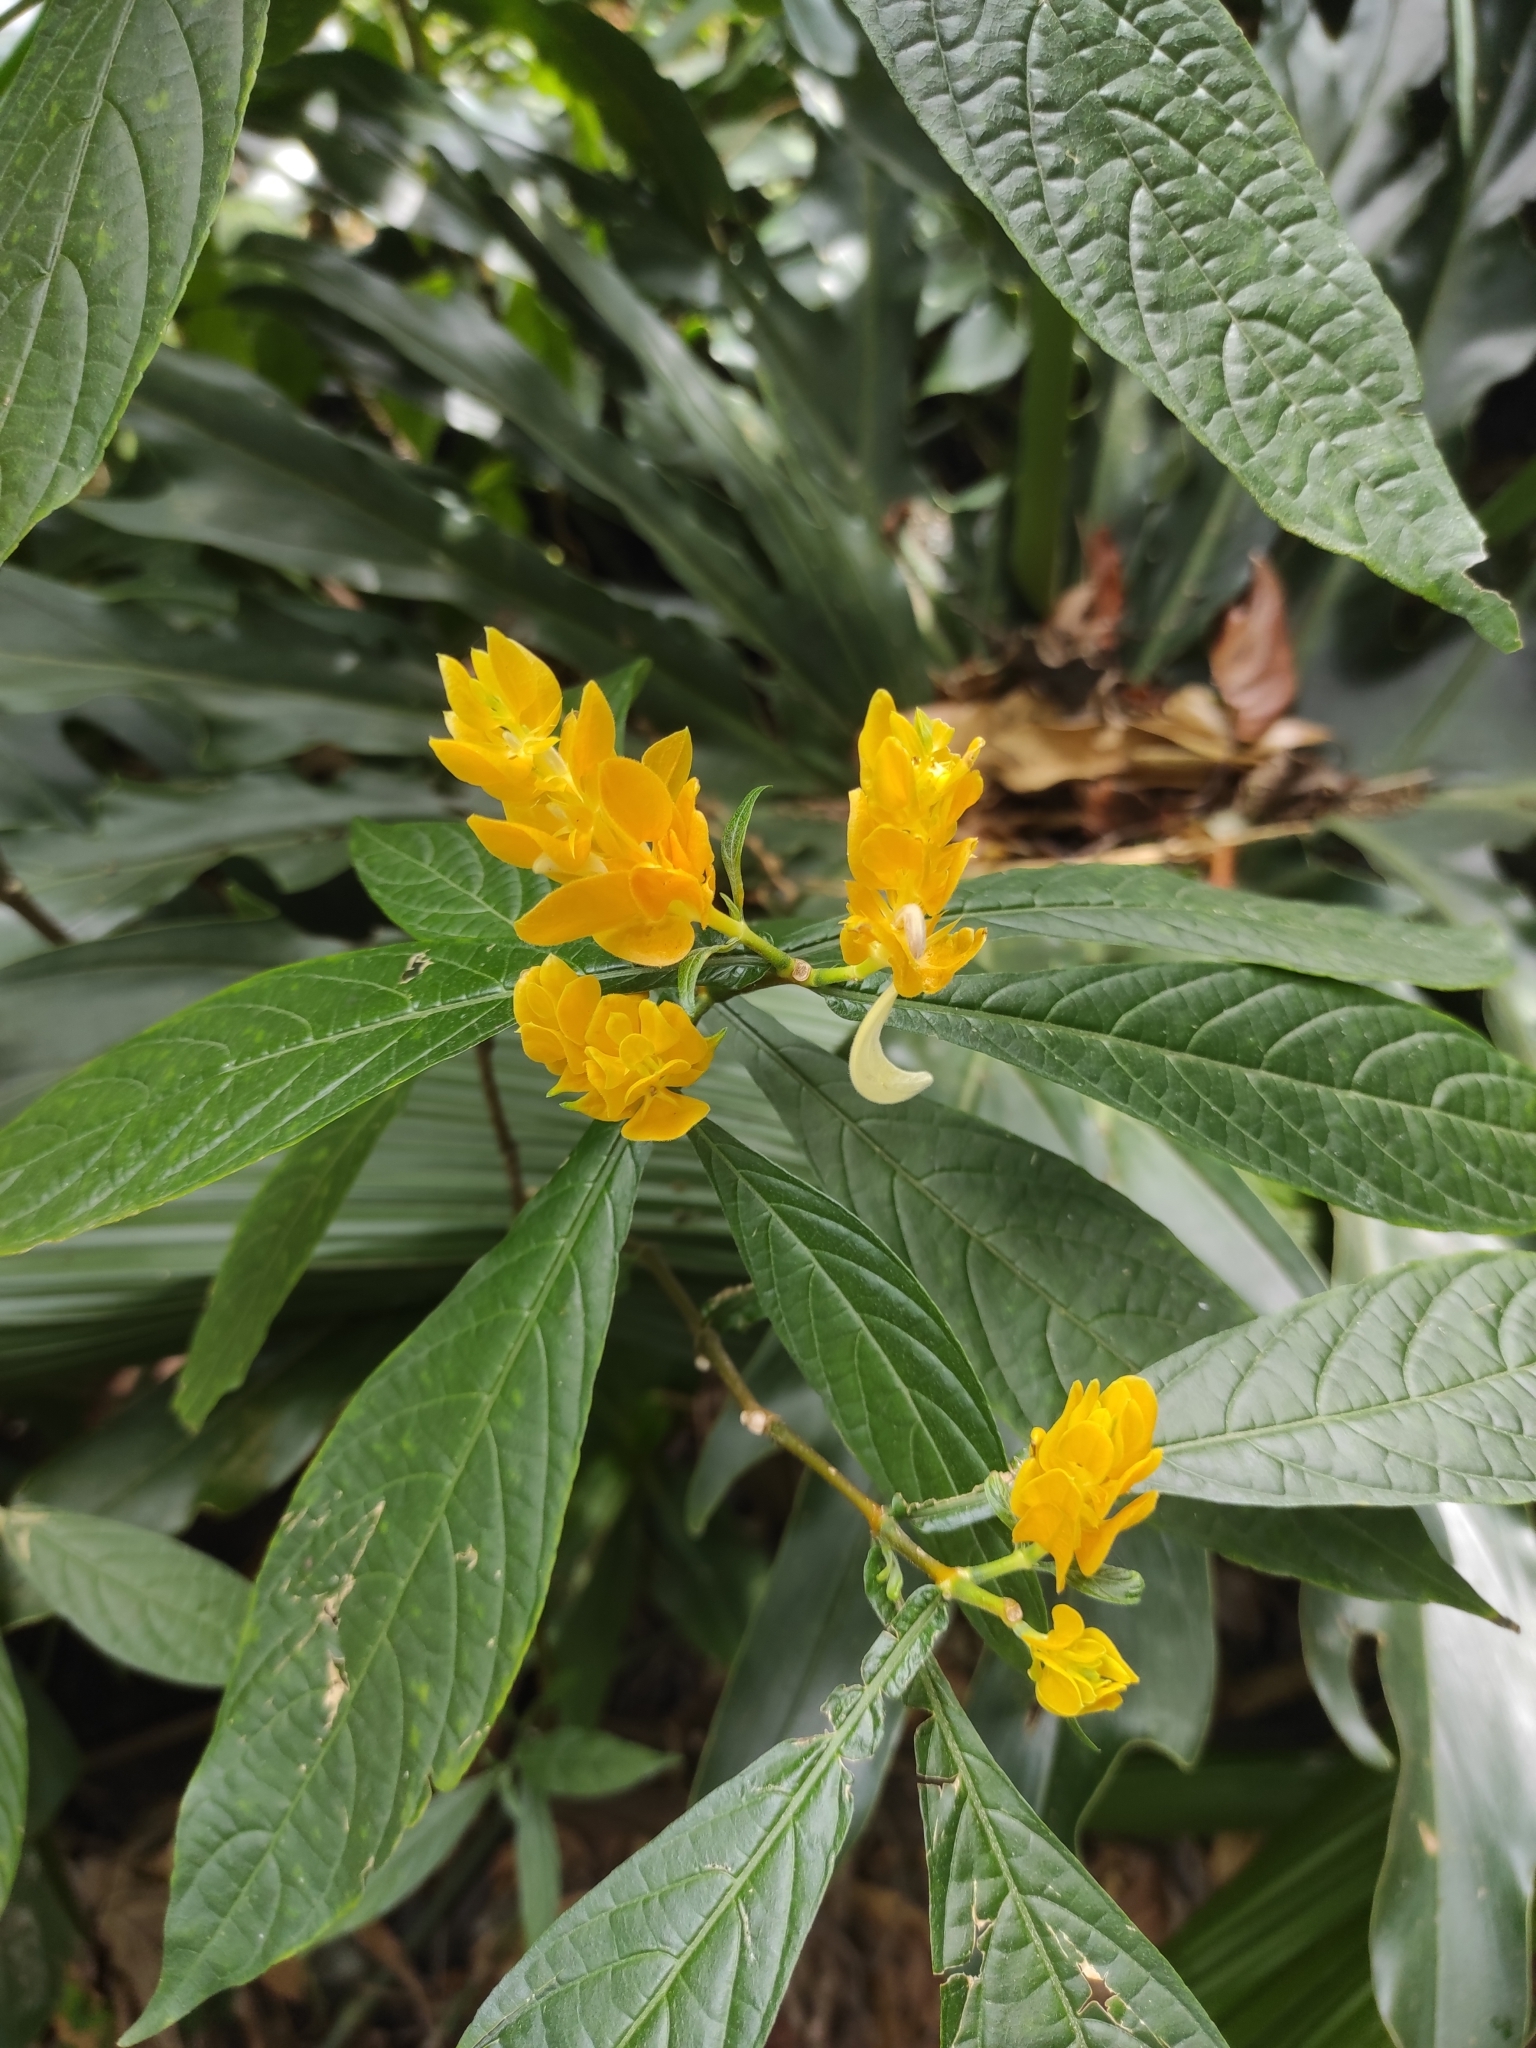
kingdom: Plantae
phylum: Tracheophyta
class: Magnoliopsida
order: Lamiales
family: Acanthaceae
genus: Pachystachys
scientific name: Pachystachys lutea
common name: Golden shrimp-plant
